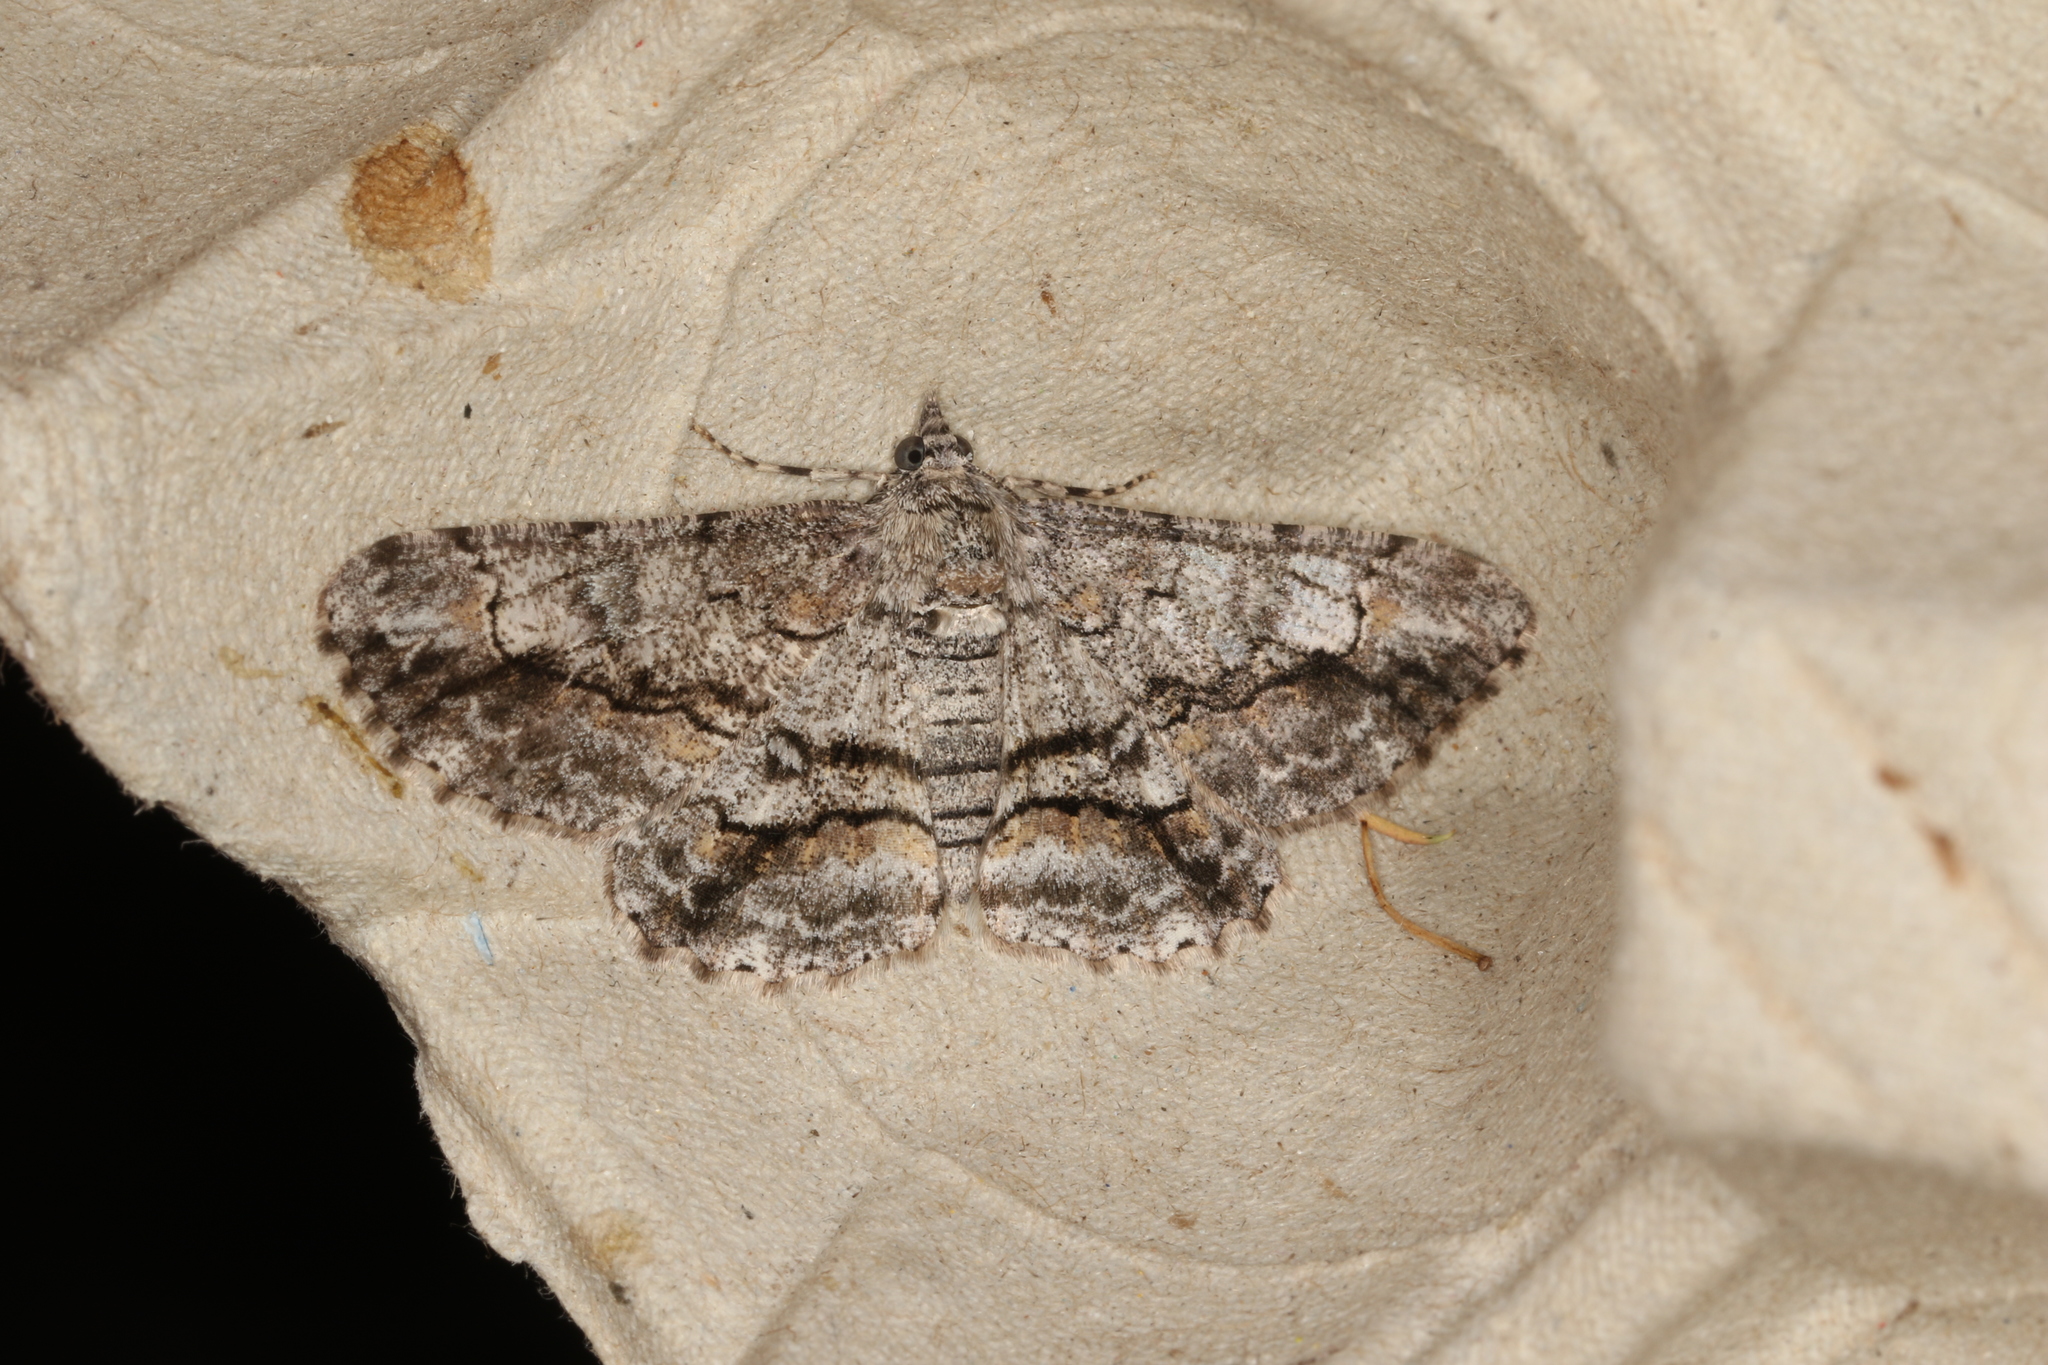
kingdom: Animalia
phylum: Arthropoda
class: Insecta
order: Lepidoptera
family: Geometridae
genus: Cleora
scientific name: Cleora injectaria
